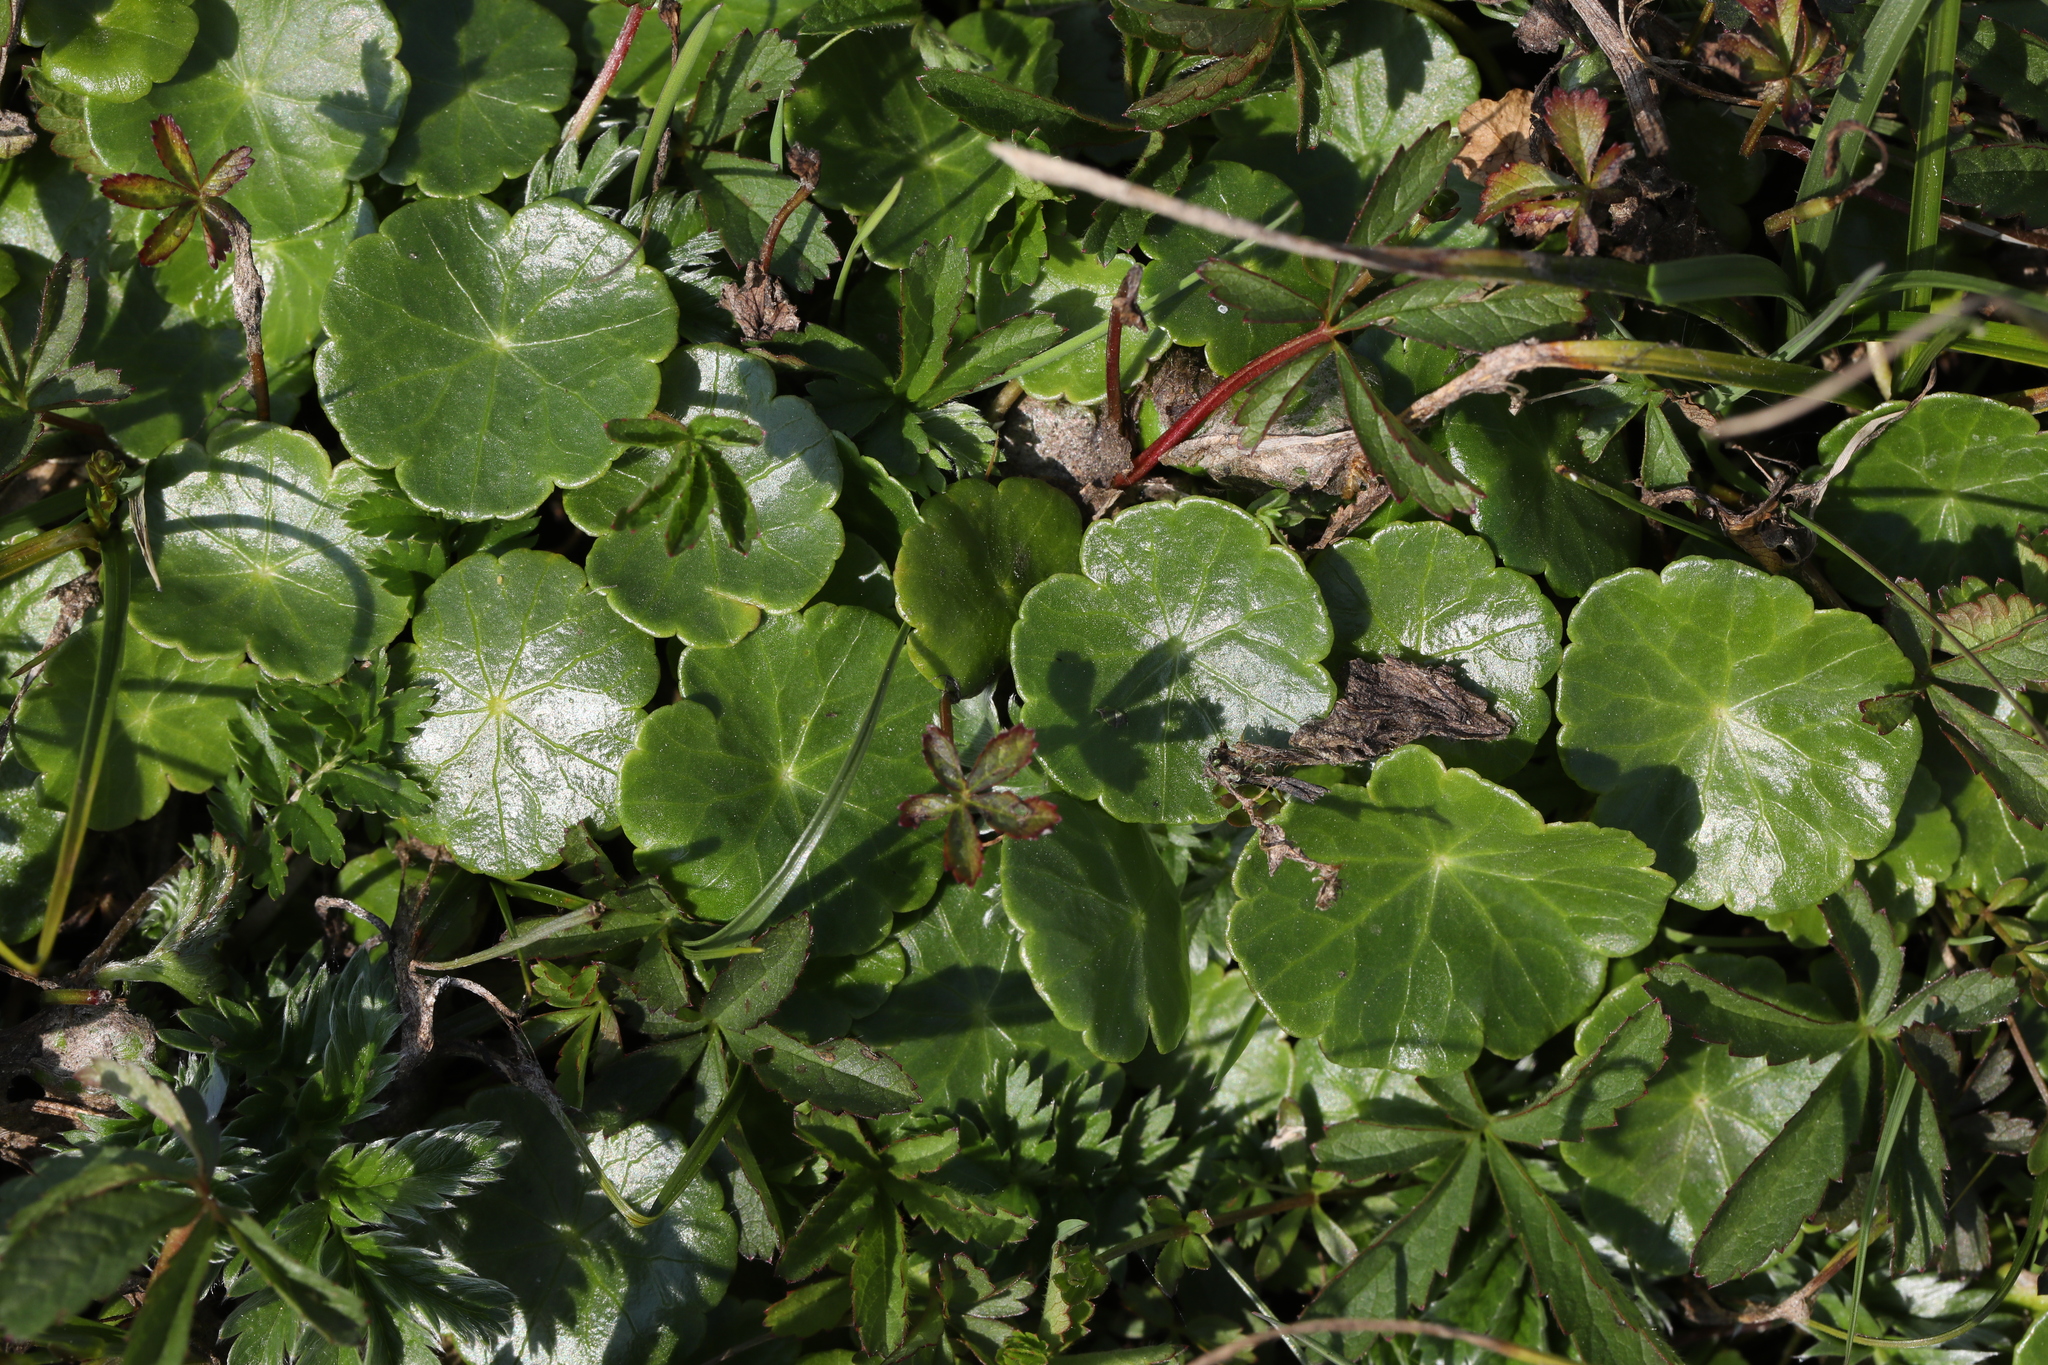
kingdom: Plantae
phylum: Tracheophyta
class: Magnoliopsida
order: Apiales
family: Araliaceae
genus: Hydrocotyle
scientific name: Hydrocotyle vulgaris
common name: Marsh pennywort
